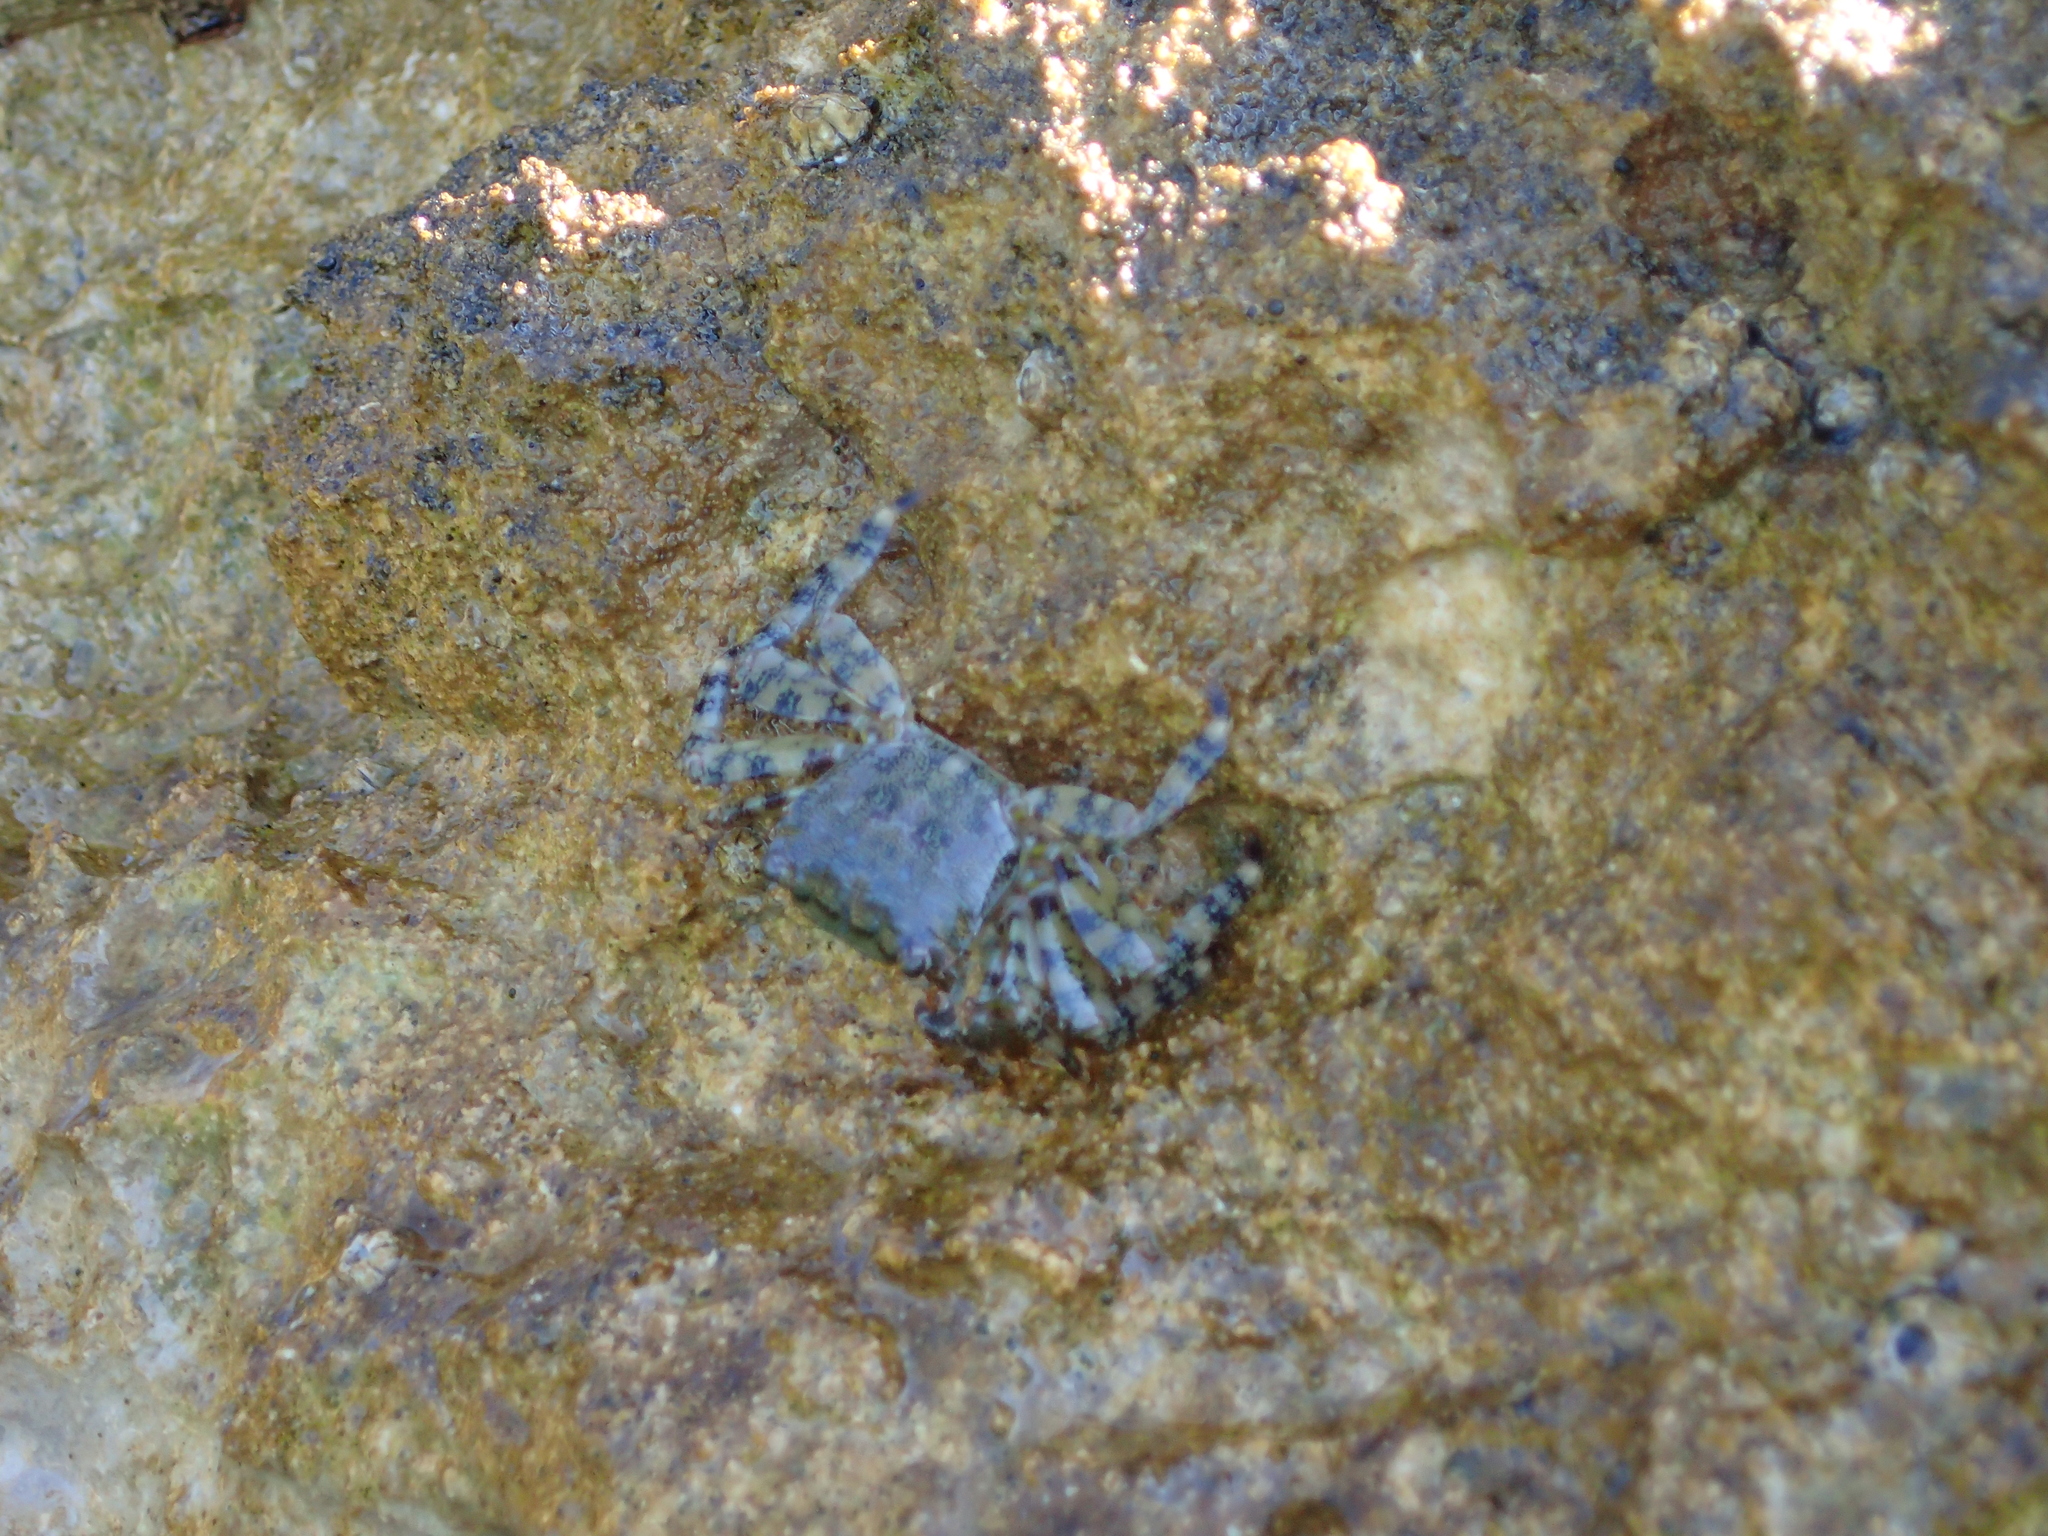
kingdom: Animalia
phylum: Arthropoda
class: Malacostraca
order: Decapoda
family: Grapsidae
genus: Pachygrapsus
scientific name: Pachygrapsus marmoratus
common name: Marbled rock crab
